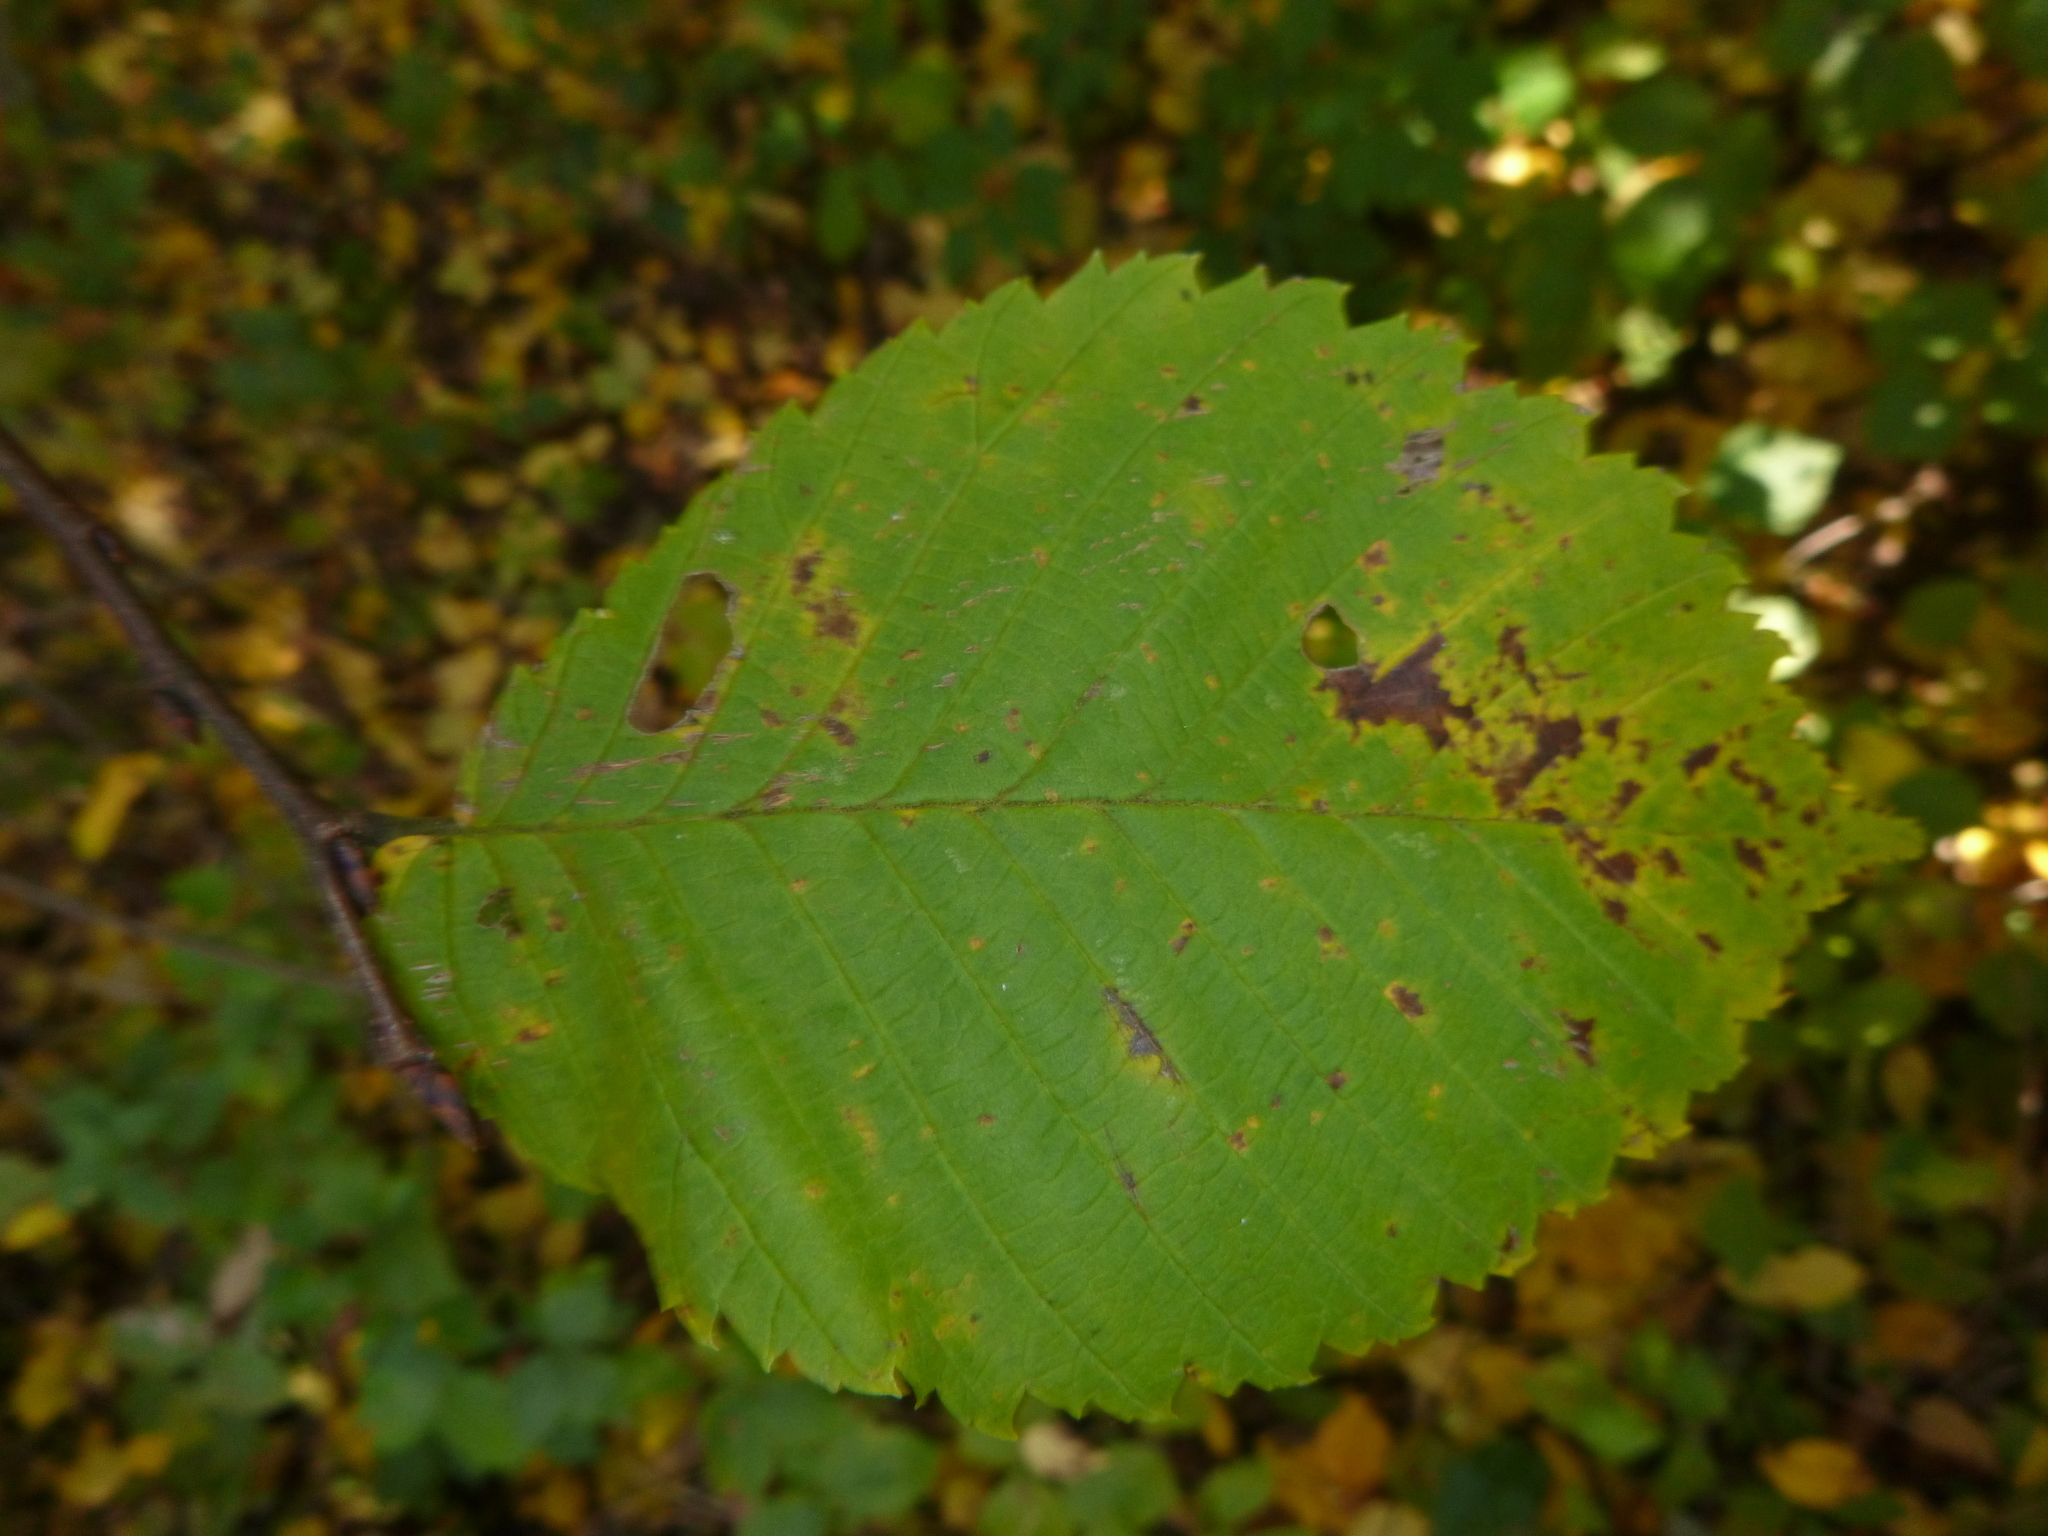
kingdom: Plantae
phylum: Tracheophyta
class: Magnoliopsida
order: Rosales
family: Ulmaceae
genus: Ulmus
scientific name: Ulmus minor
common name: Small-leaved elm
